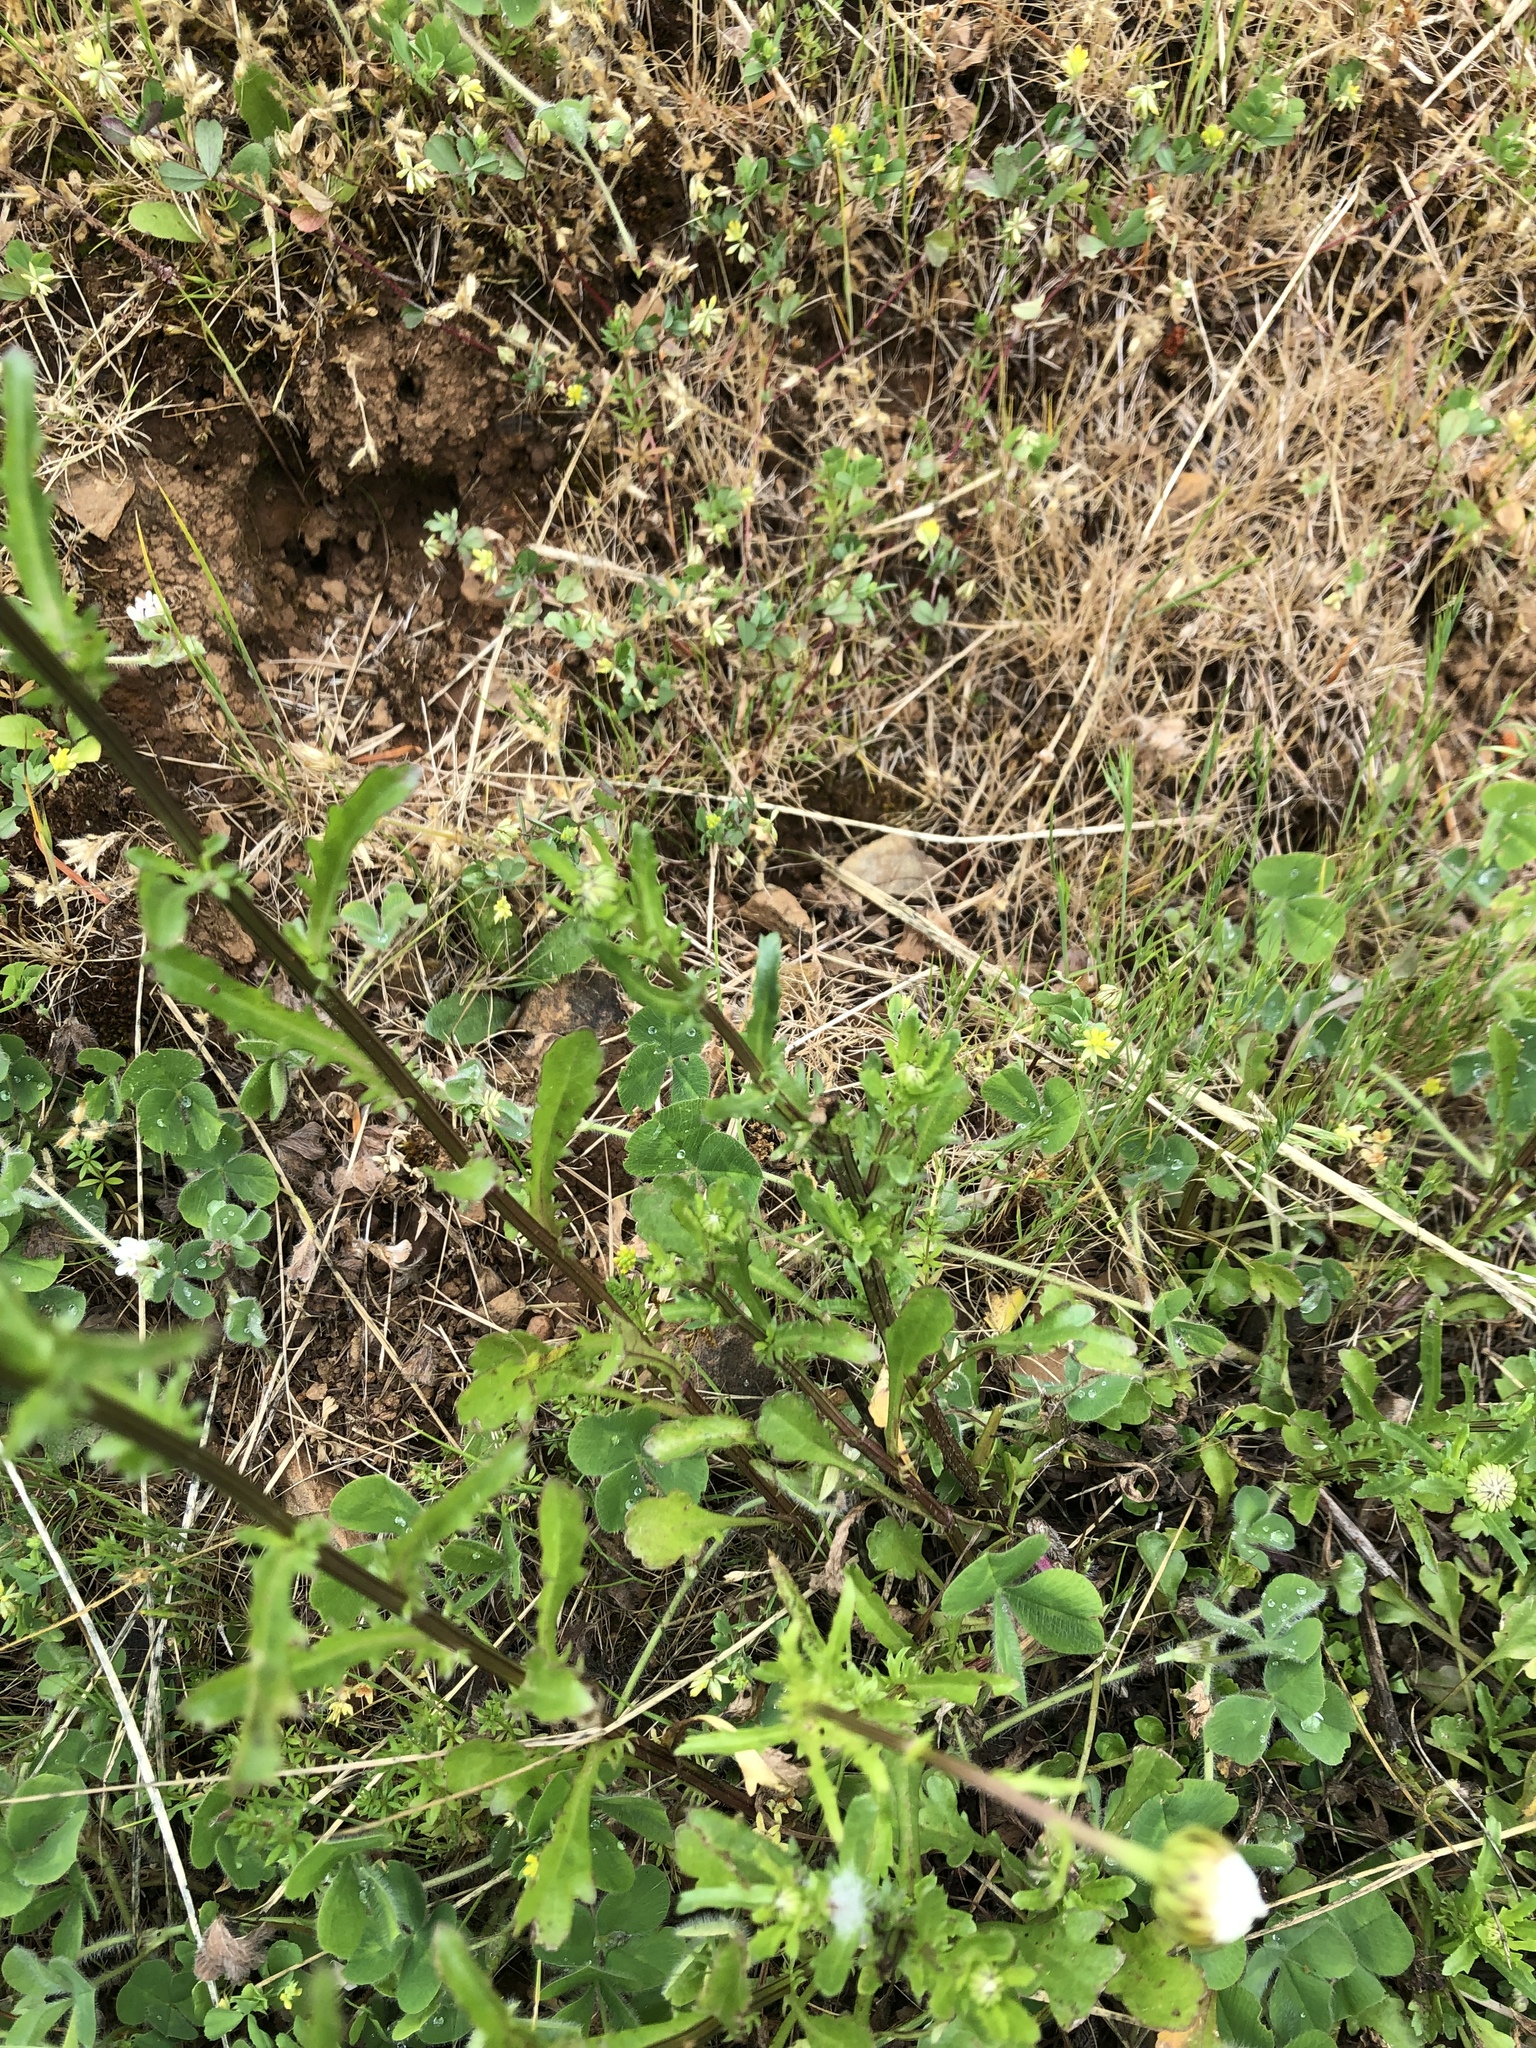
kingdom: Plantae
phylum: Tracheophyta
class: Magnoliopsida
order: Asterales
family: Asteraceae
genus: Leucanthemum
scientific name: Leucanthemum vulgare
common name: Oxeye daisy
